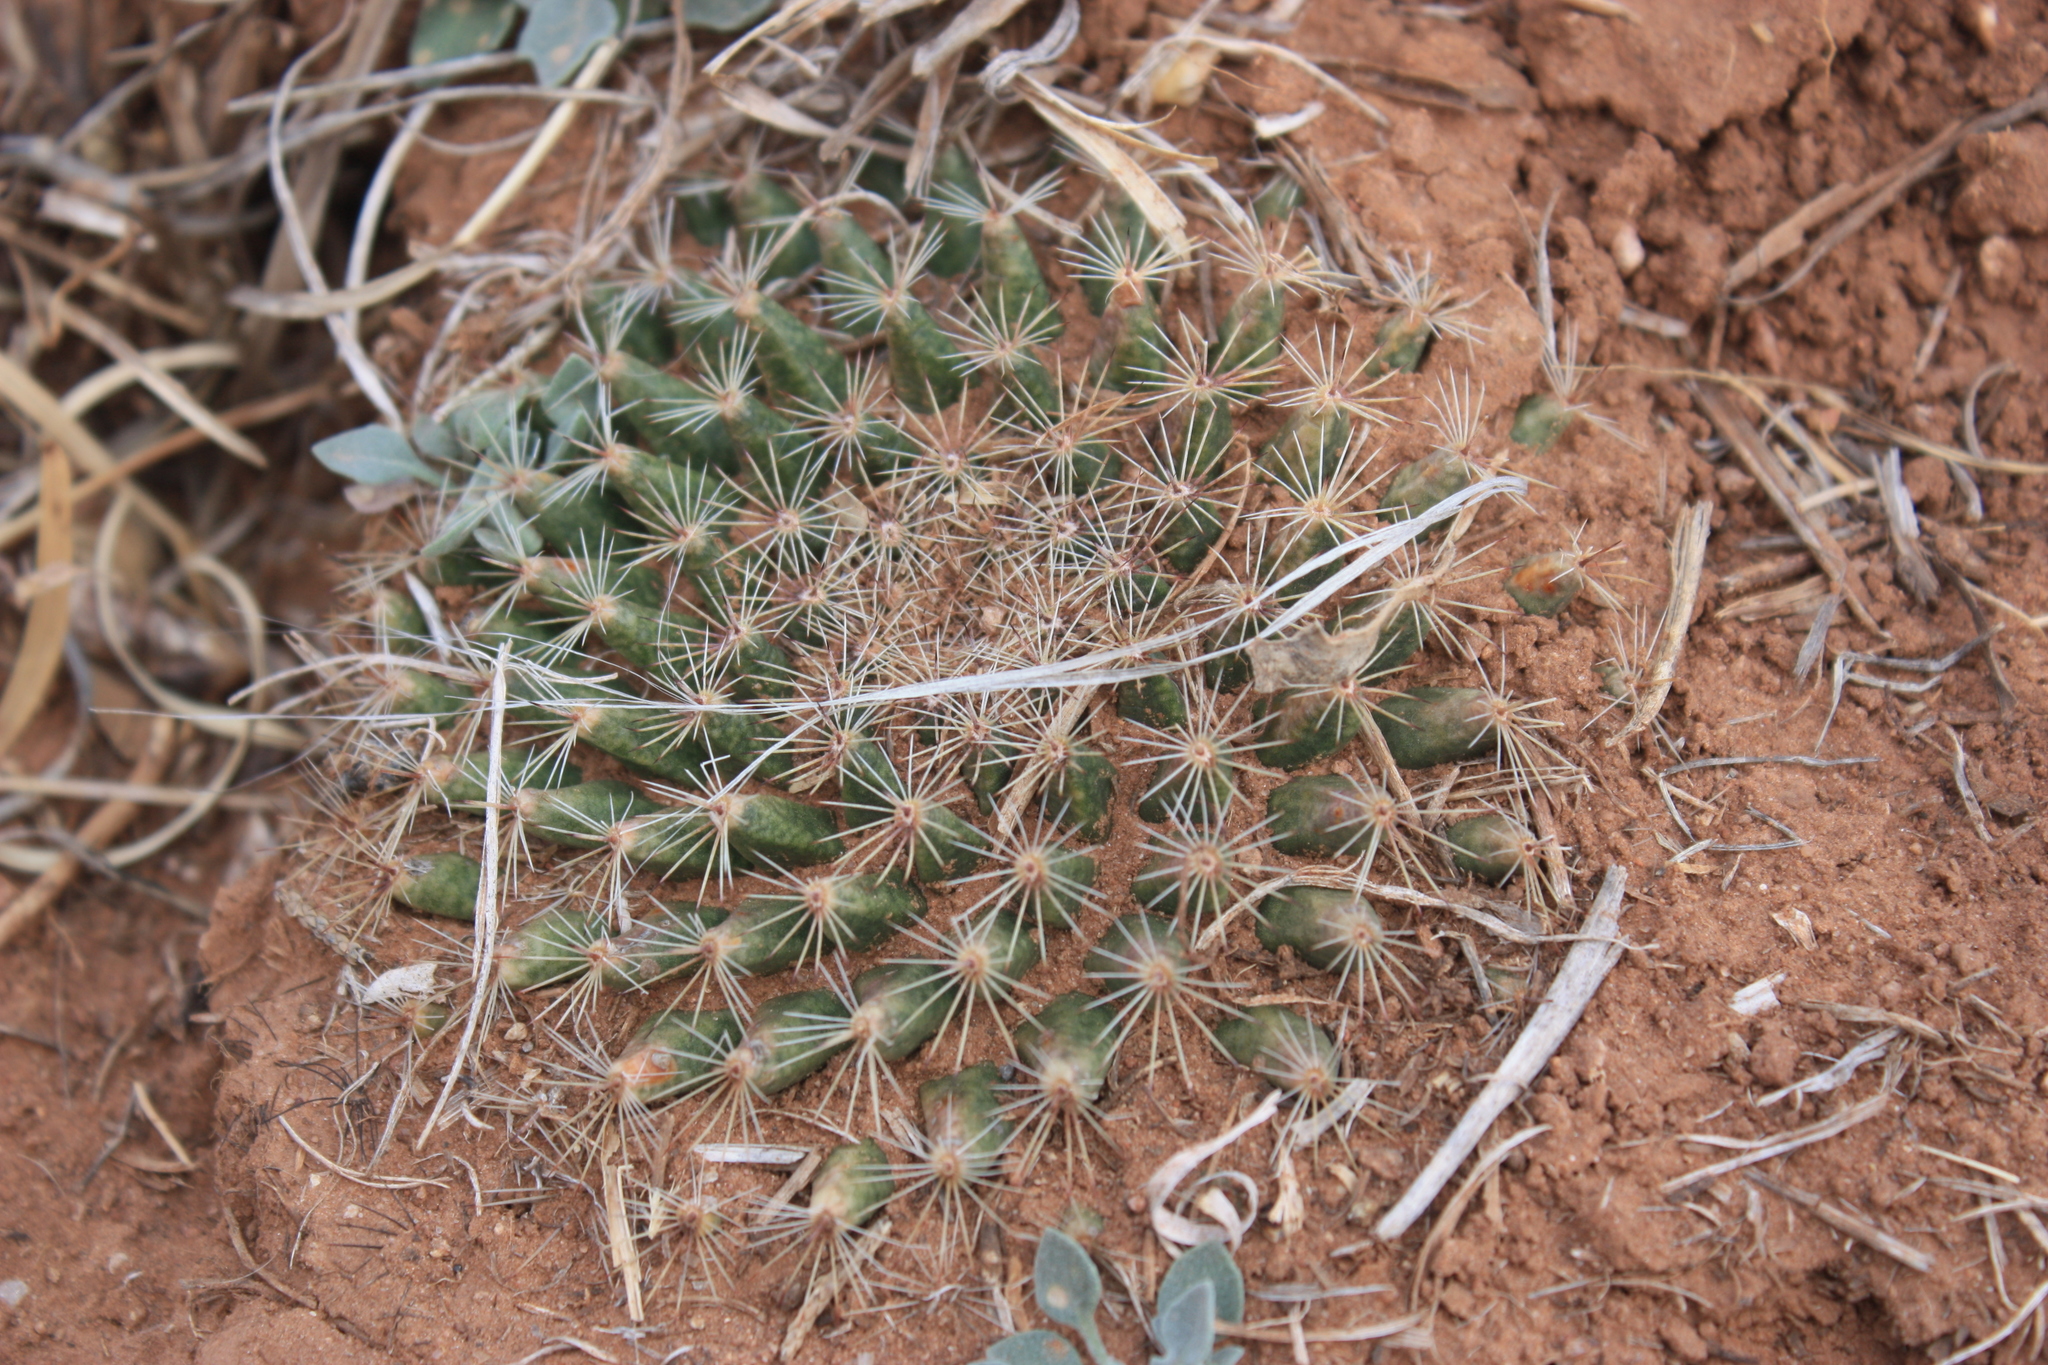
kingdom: Plantae
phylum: Tracheophyta
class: Magnoliopsida
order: Caryophyllales
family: Cactaceae
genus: Mammillaria
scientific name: Mammillaria heyderi
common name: Little nipple cactus
